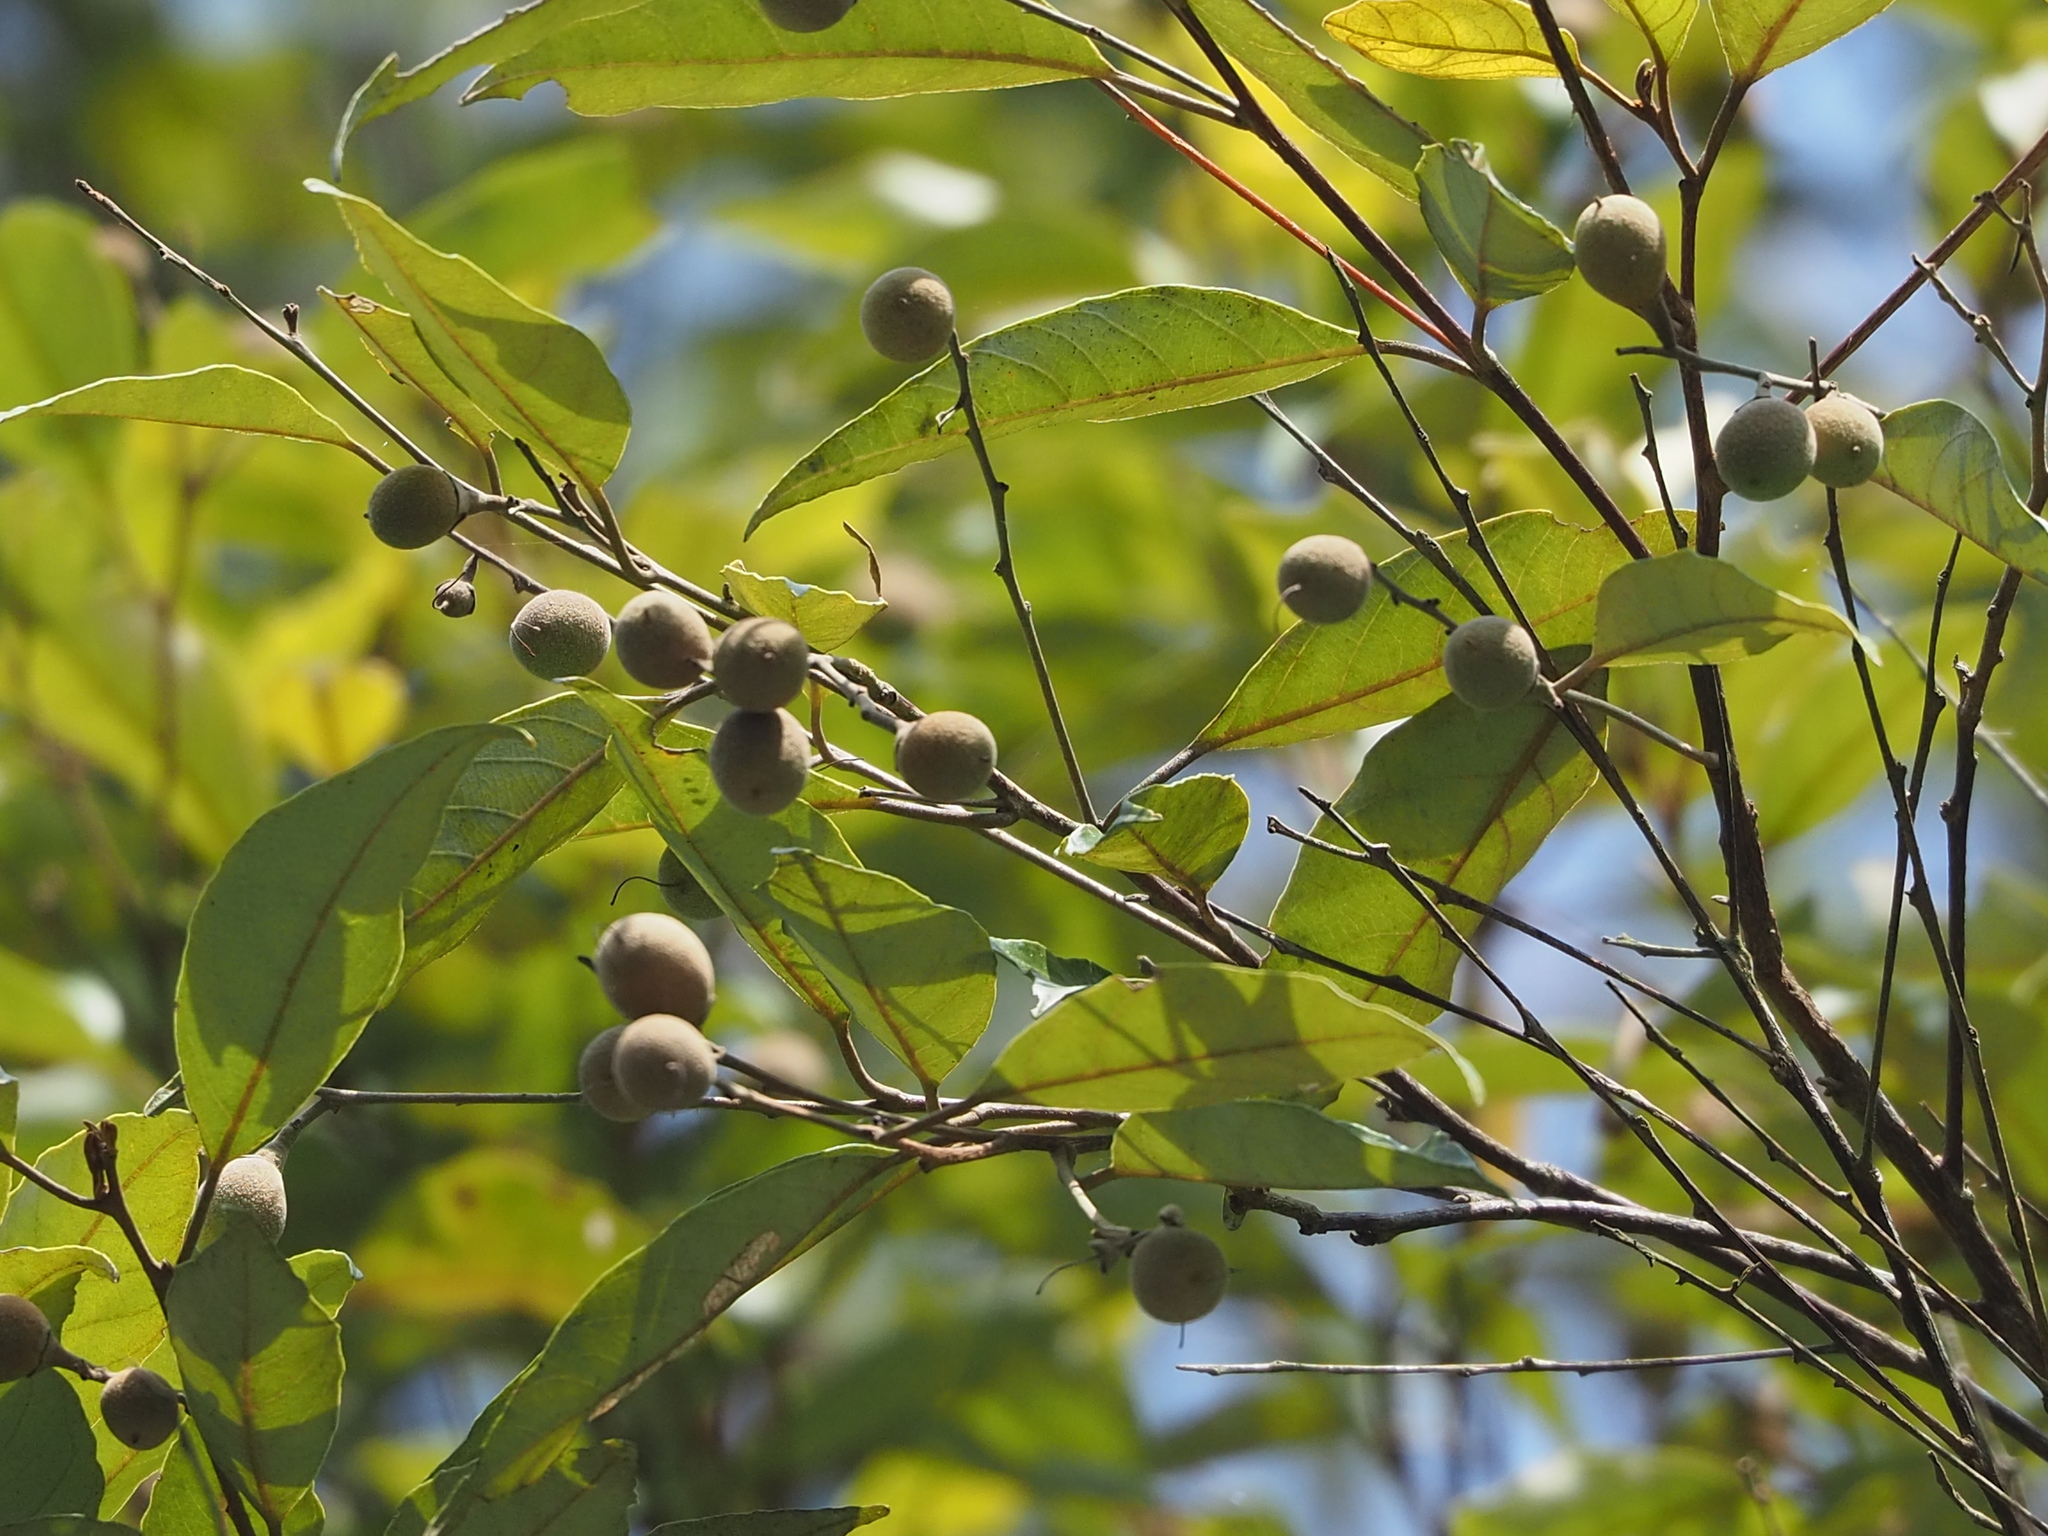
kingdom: Plantae
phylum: Tracheophyta
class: Magnoliopsida
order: Ericales
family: Styracaceae
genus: Styrax
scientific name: Styrax suberifolius
